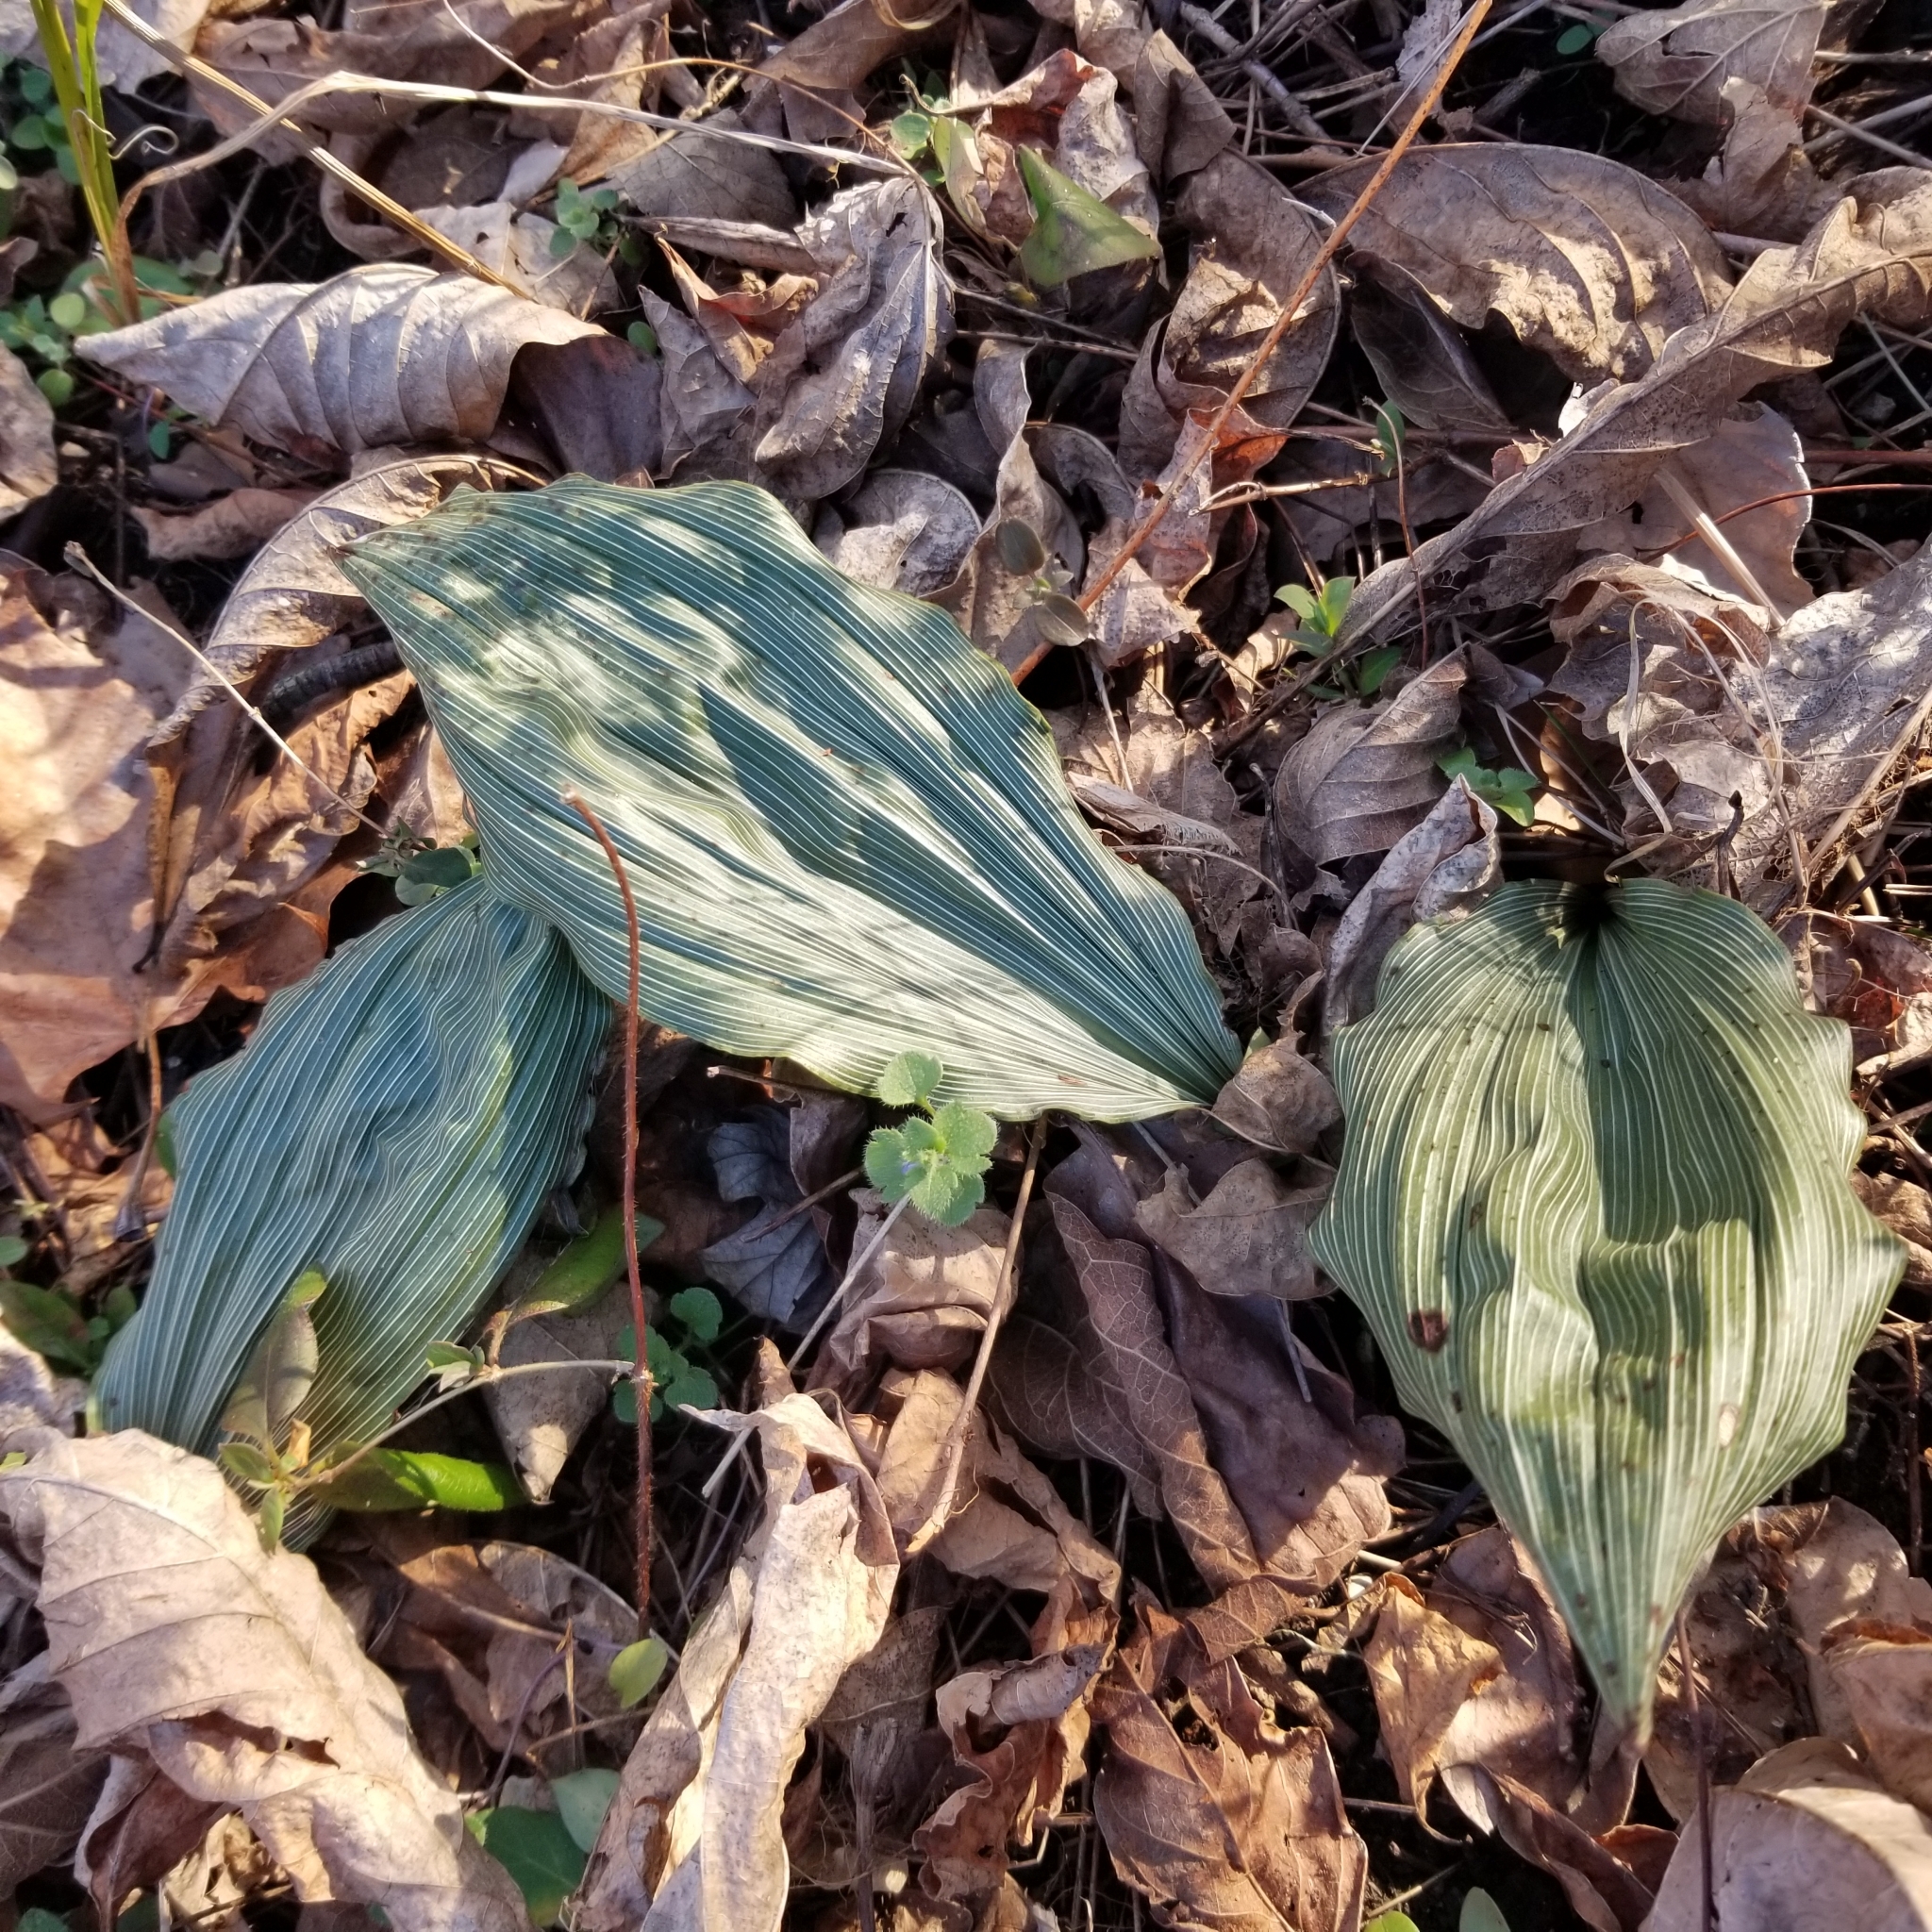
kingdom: Plantae
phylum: Tracheophyta
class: Liliopsida
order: Asparagales
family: Orchidaceae
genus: Aplectrum
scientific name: Aplectrum hyemale
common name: Adam-and-eve
